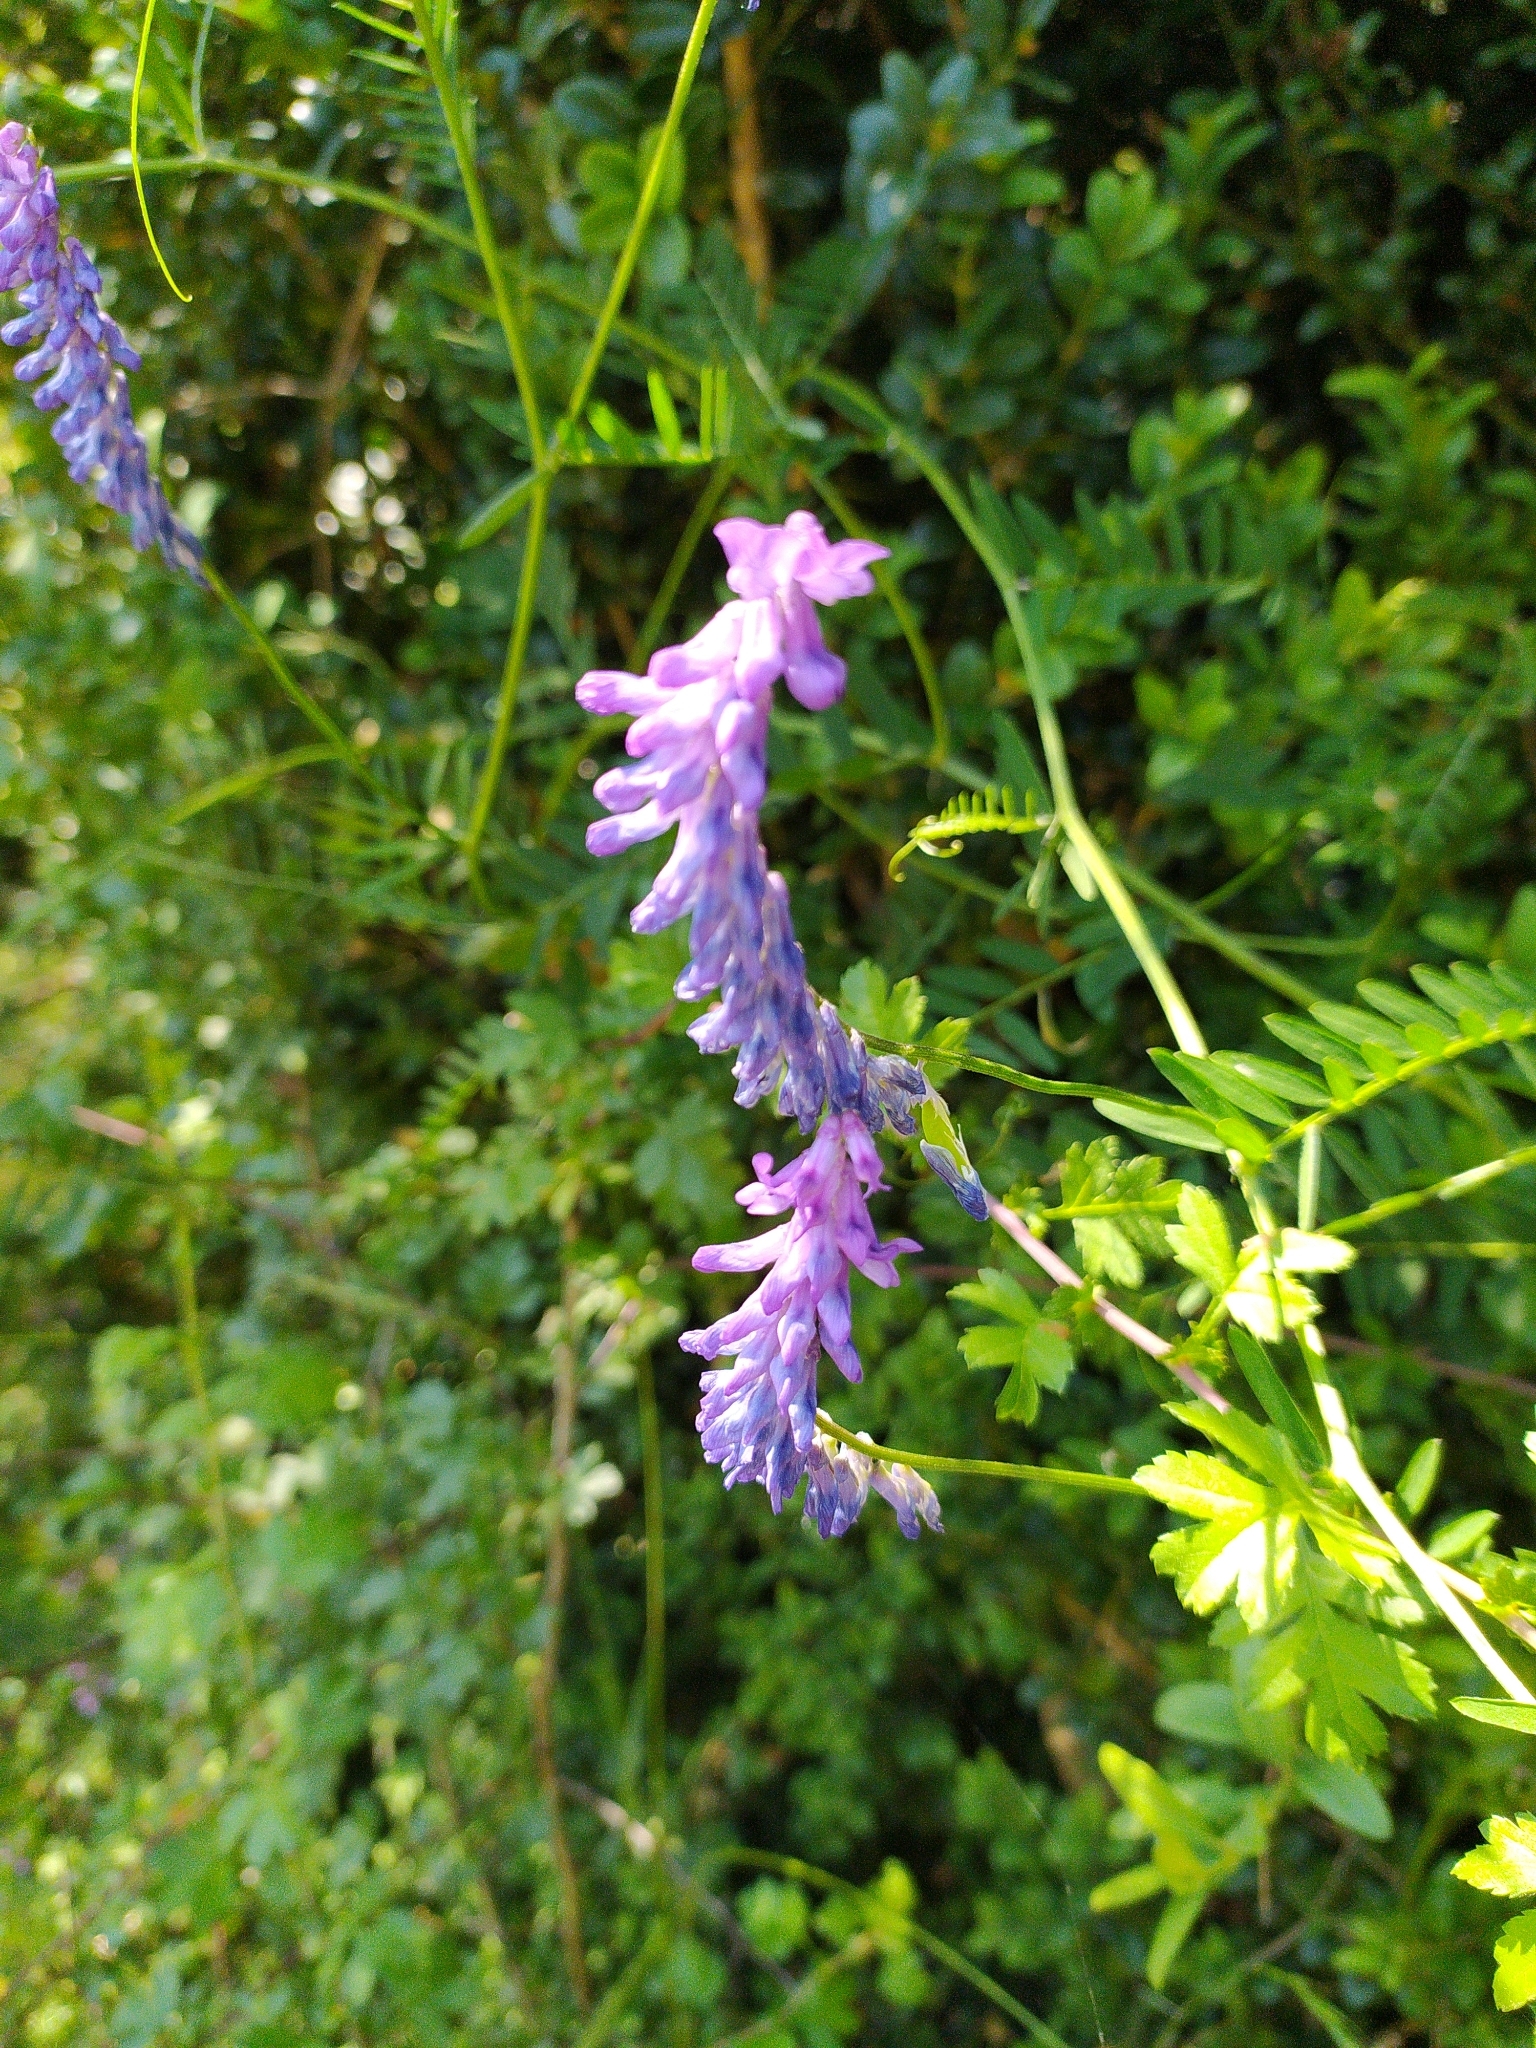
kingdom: Plantae
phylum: Tracheophyta
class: Magnoliopsida
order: Fabales
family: Fabaceae
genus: Vicia
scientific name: Vicia cracca
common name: Bird vetch
